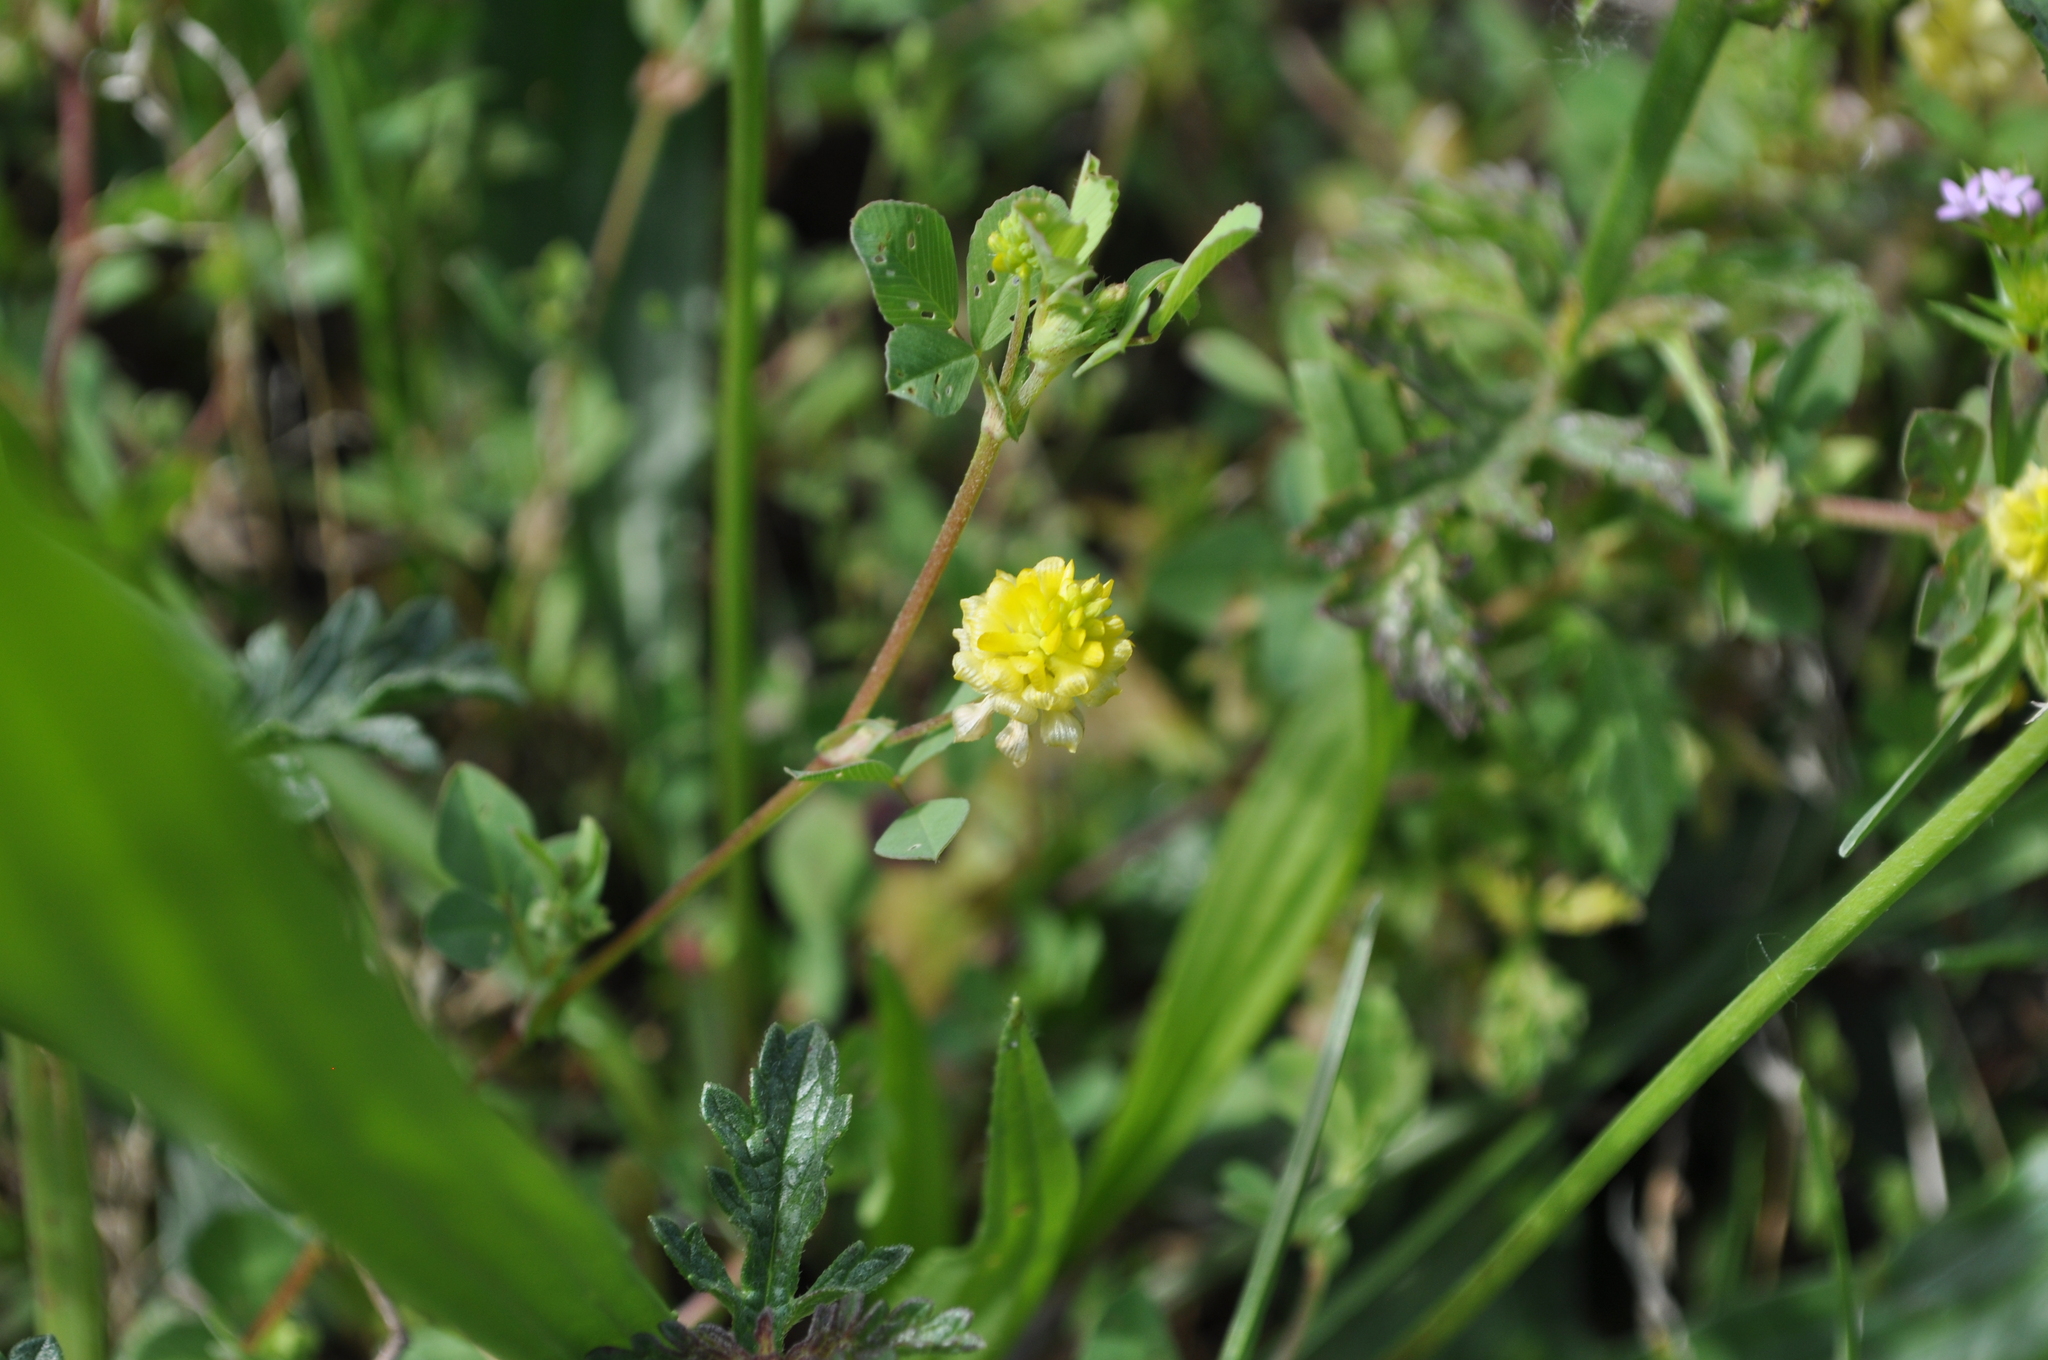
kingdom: Plantae
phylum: Tracheophyta
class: Magnoliopsida
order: Fabales
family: Fabaceae
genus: Trifolium
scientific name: Trifolium campestre
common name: Field clover
